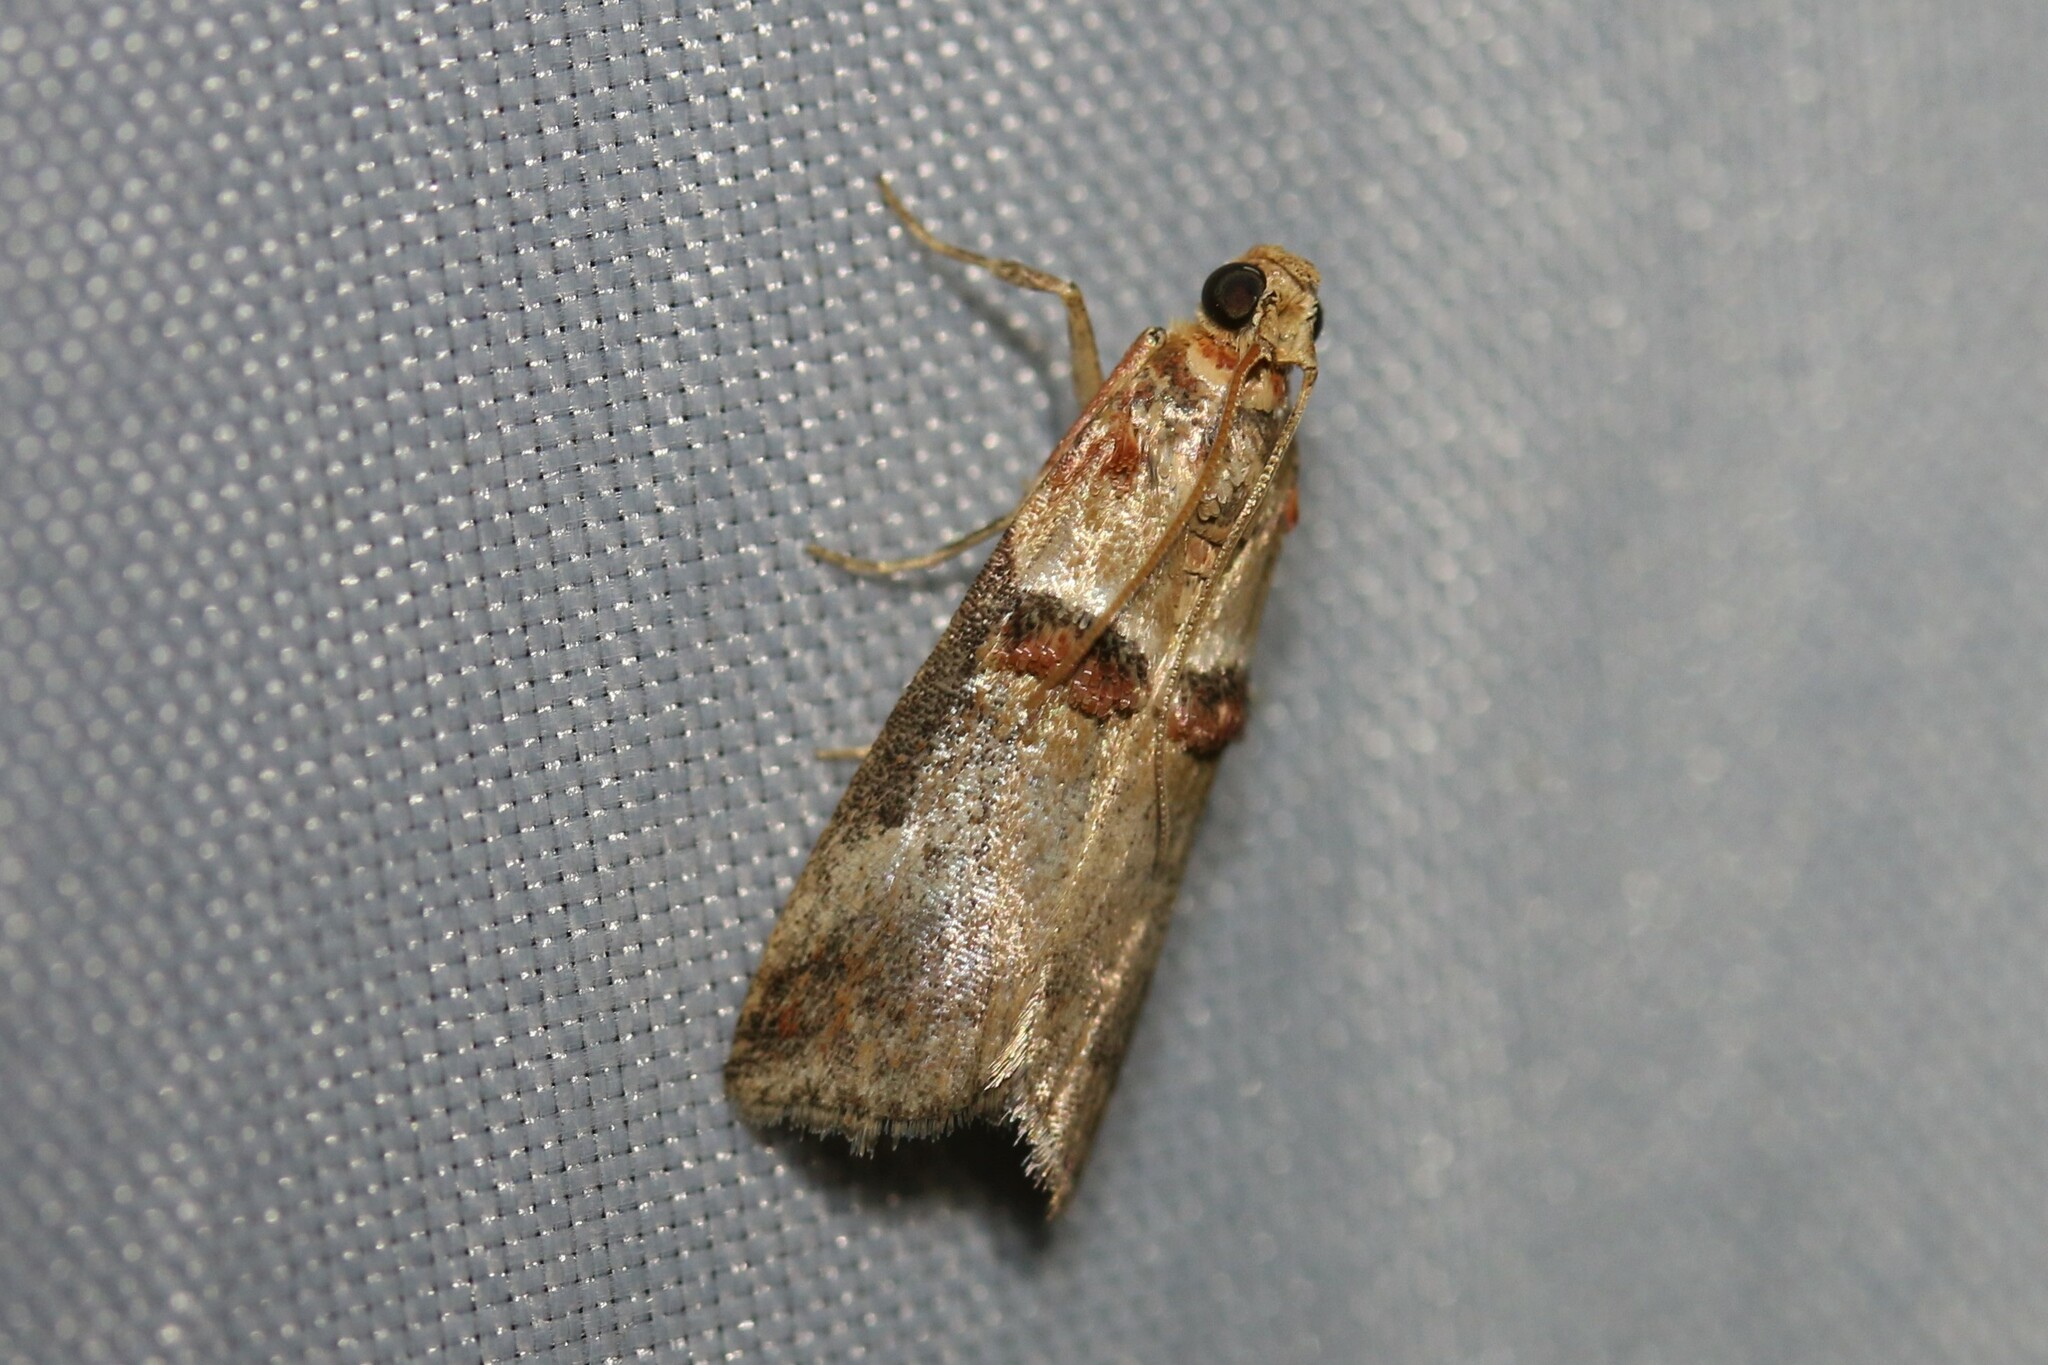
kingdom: Animalia
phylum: Arthropoda
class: Insecta
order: Lepidoptera
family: Pyralidae
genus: Acrobasis
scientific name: Acrobasis tumidana
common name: Scarce oak knot-horn
